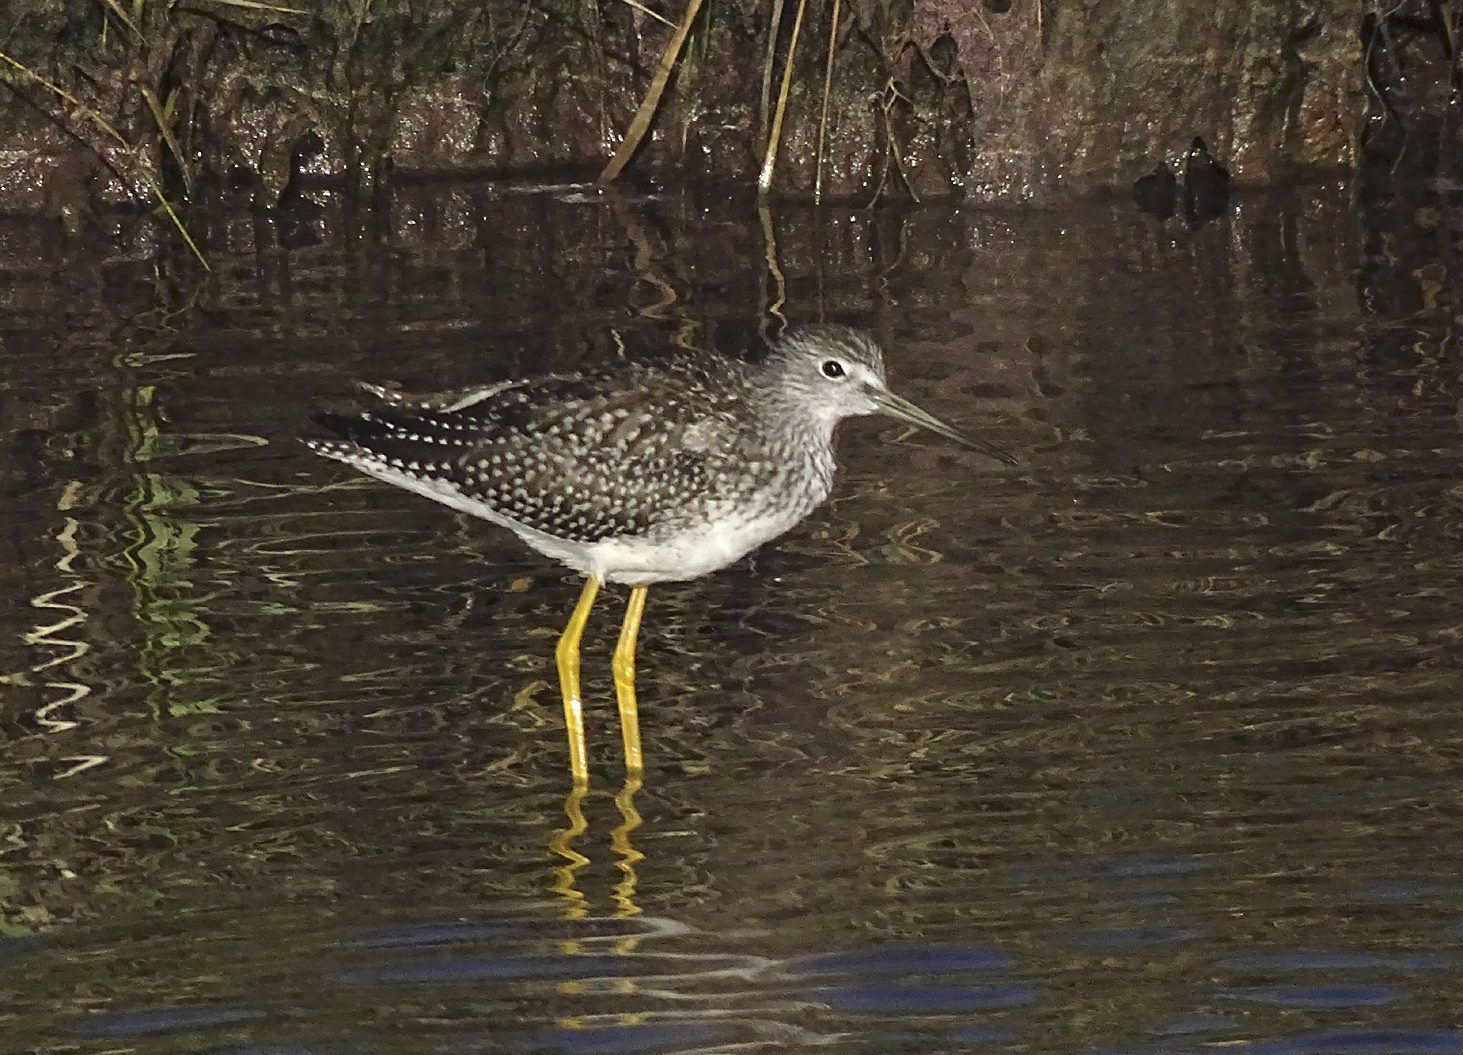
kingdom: Animalia
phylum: Chordata
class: Aves
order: Charadriiformes
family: Scolopacidae
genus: Tringa
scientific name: Tringa melanoleuca
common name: Greater yellowlegs
